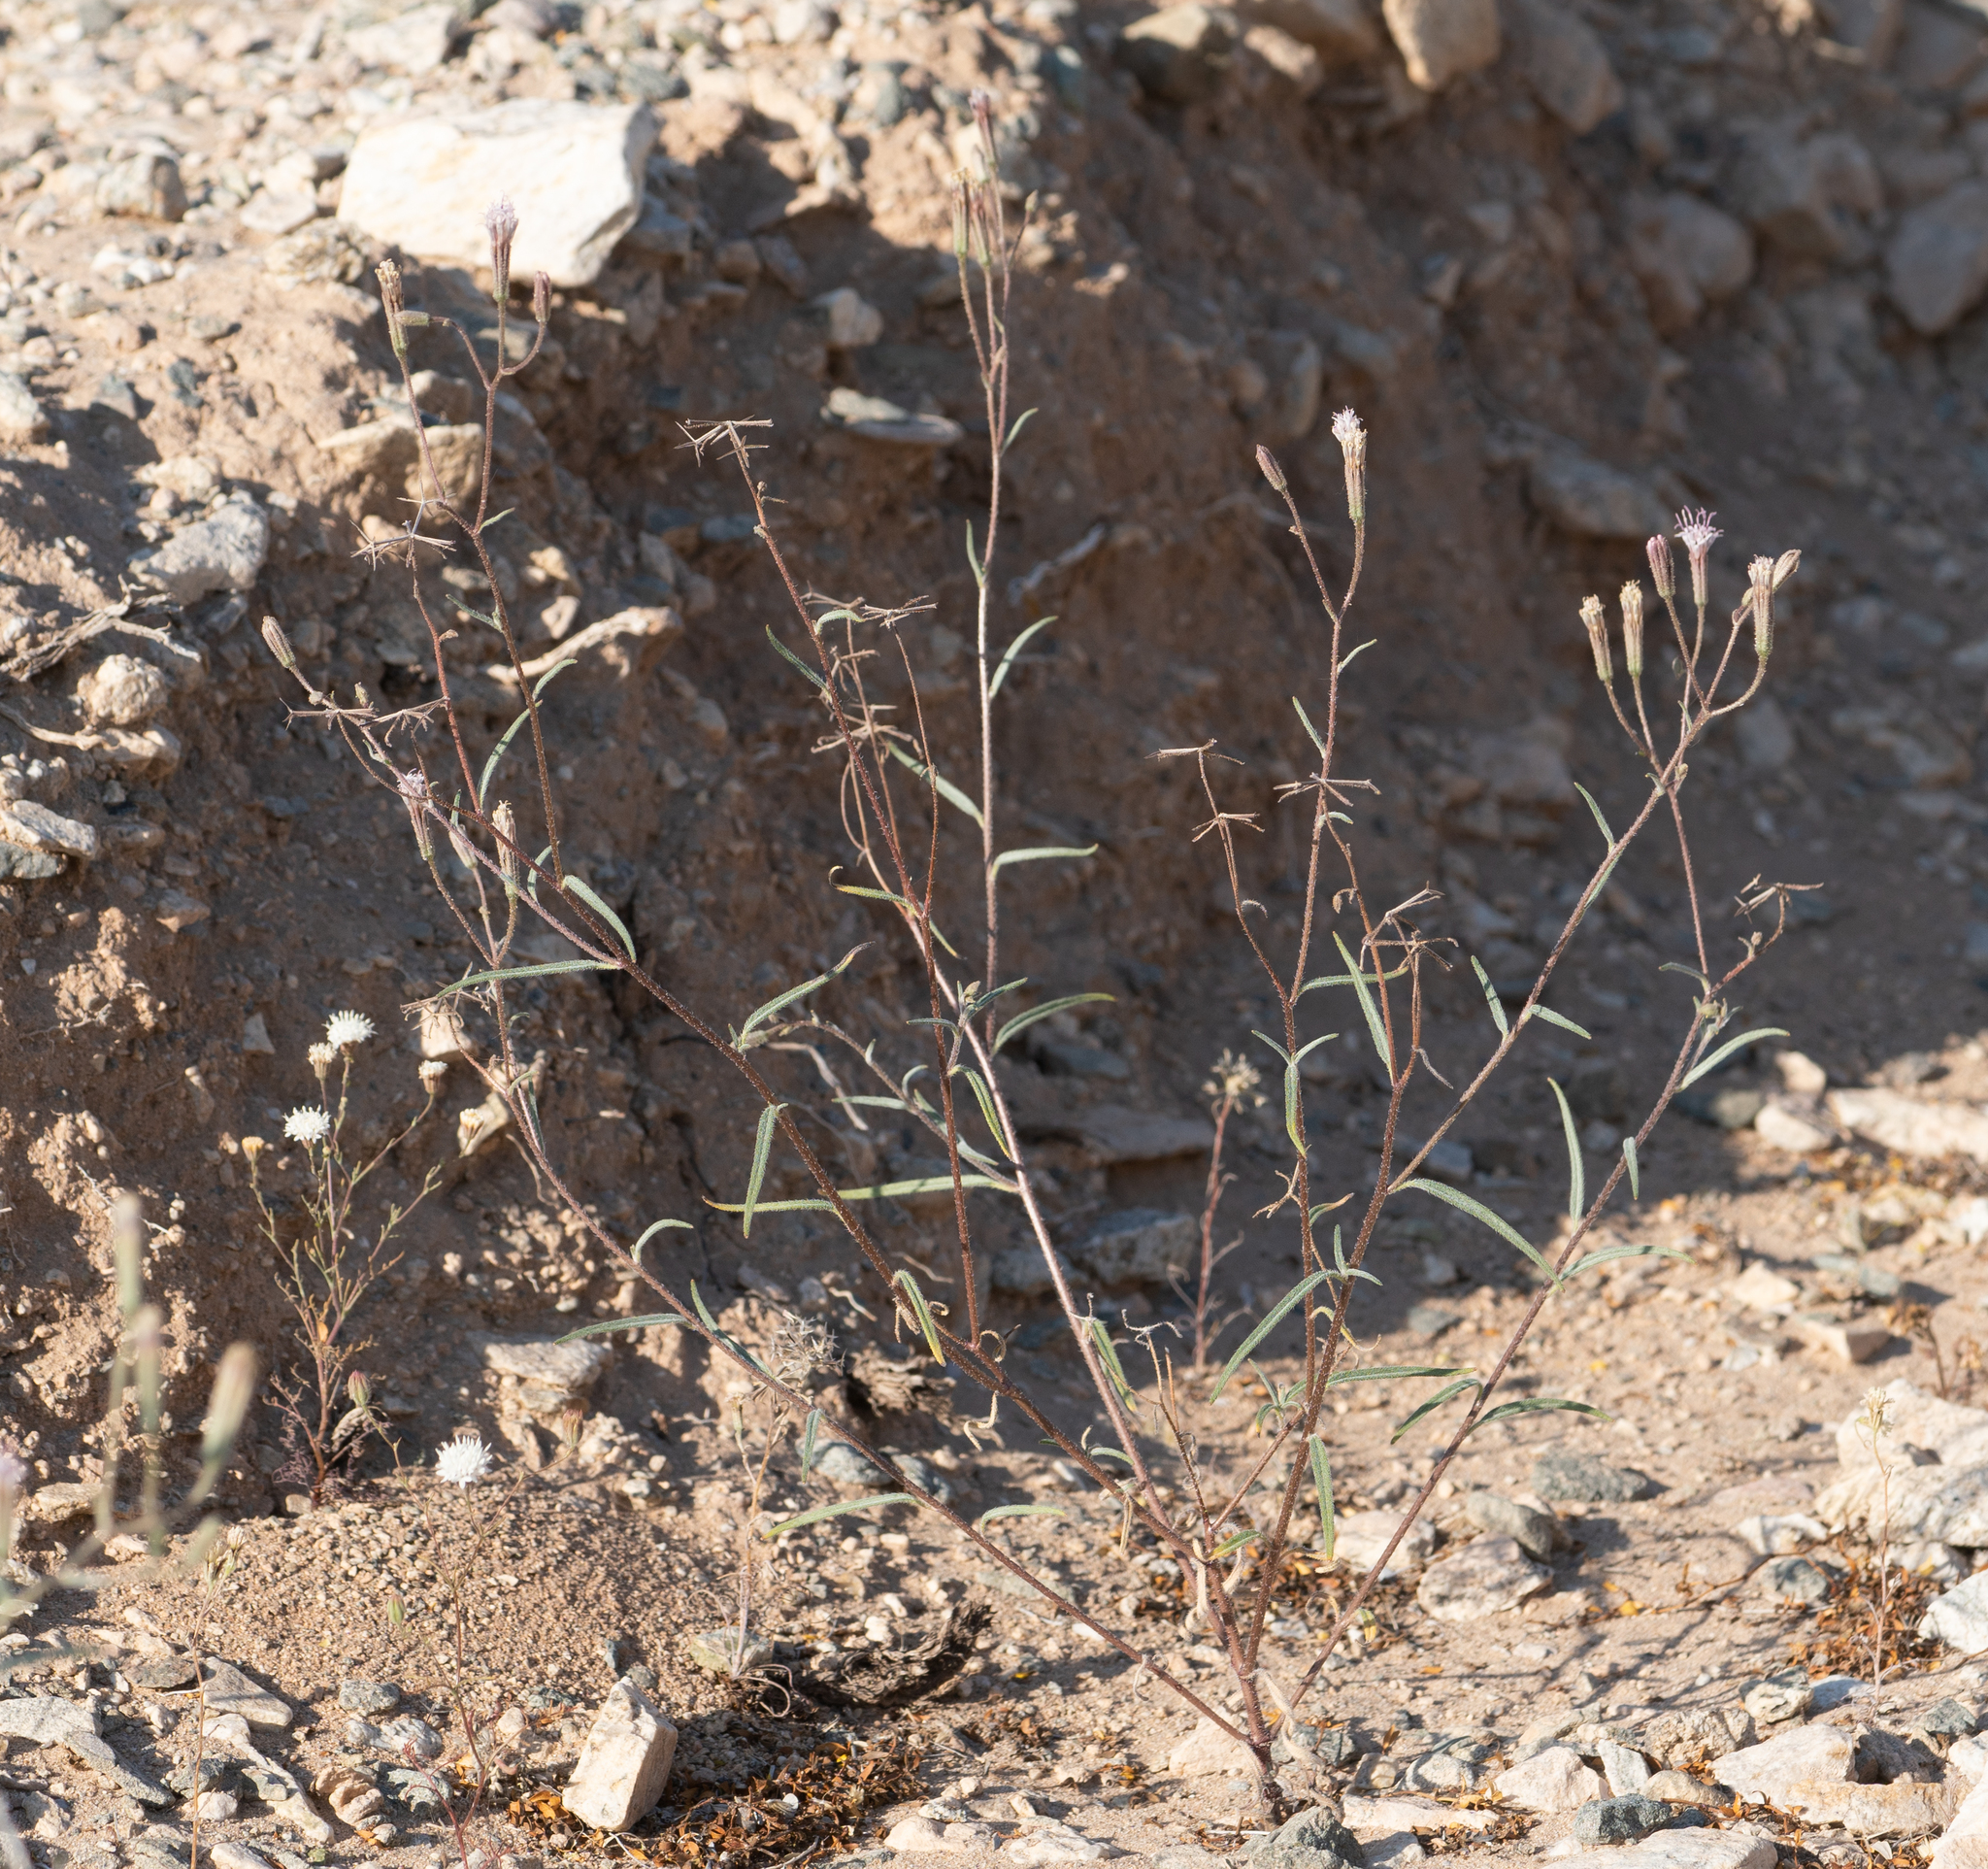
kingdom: Plantae
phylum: Tracheophyta
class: Magnoliopsida
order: Asterales
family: Asteraceae
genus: Palafoxia
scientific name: Palafoxia arida
